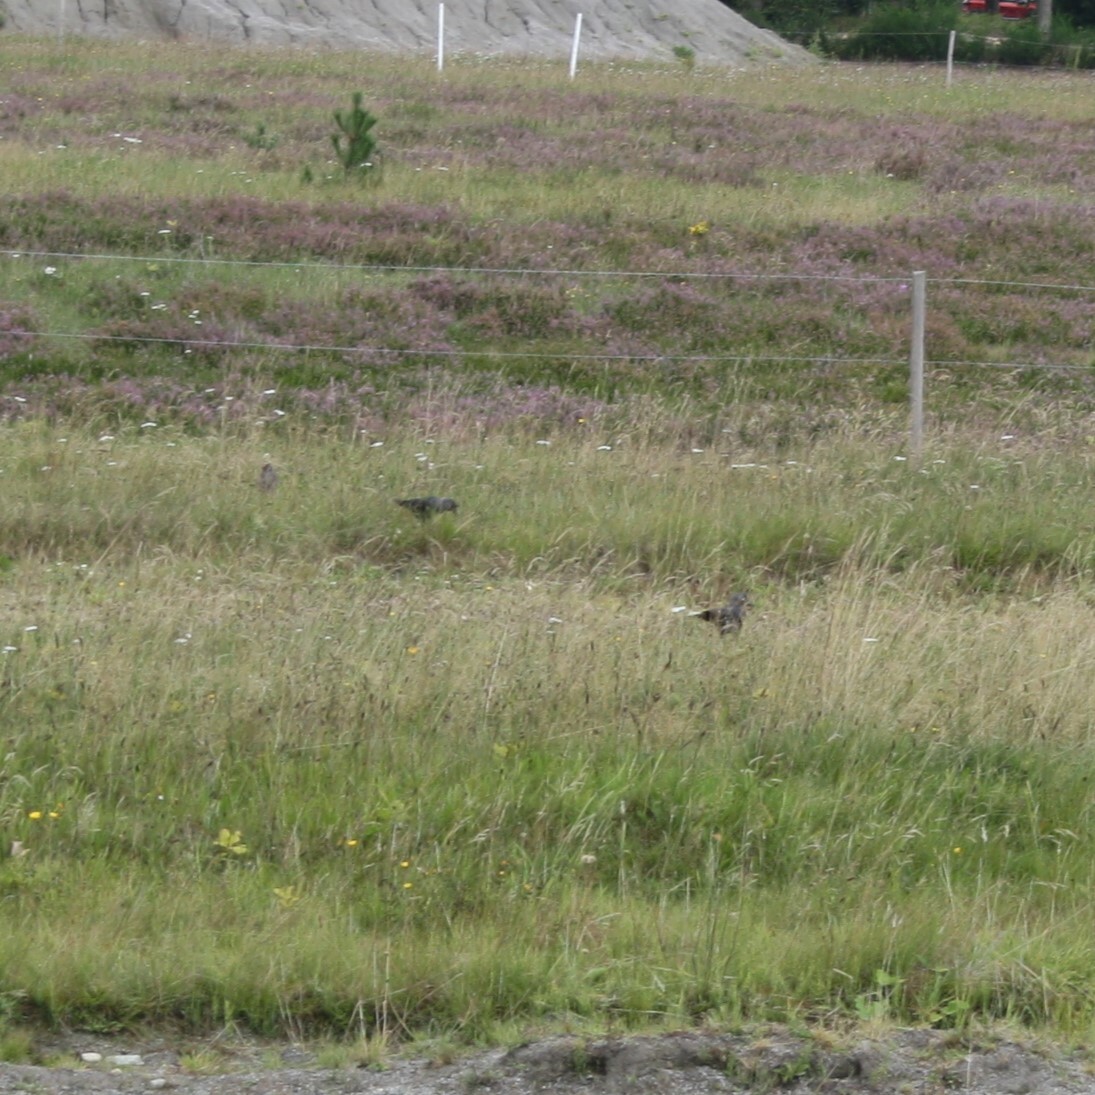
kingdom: Animalia
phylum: Chordata
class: Aves
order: Passeriformes
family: Corvidae
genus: Coloeus
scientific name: Coloeus monedula
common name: Western jackdaw
